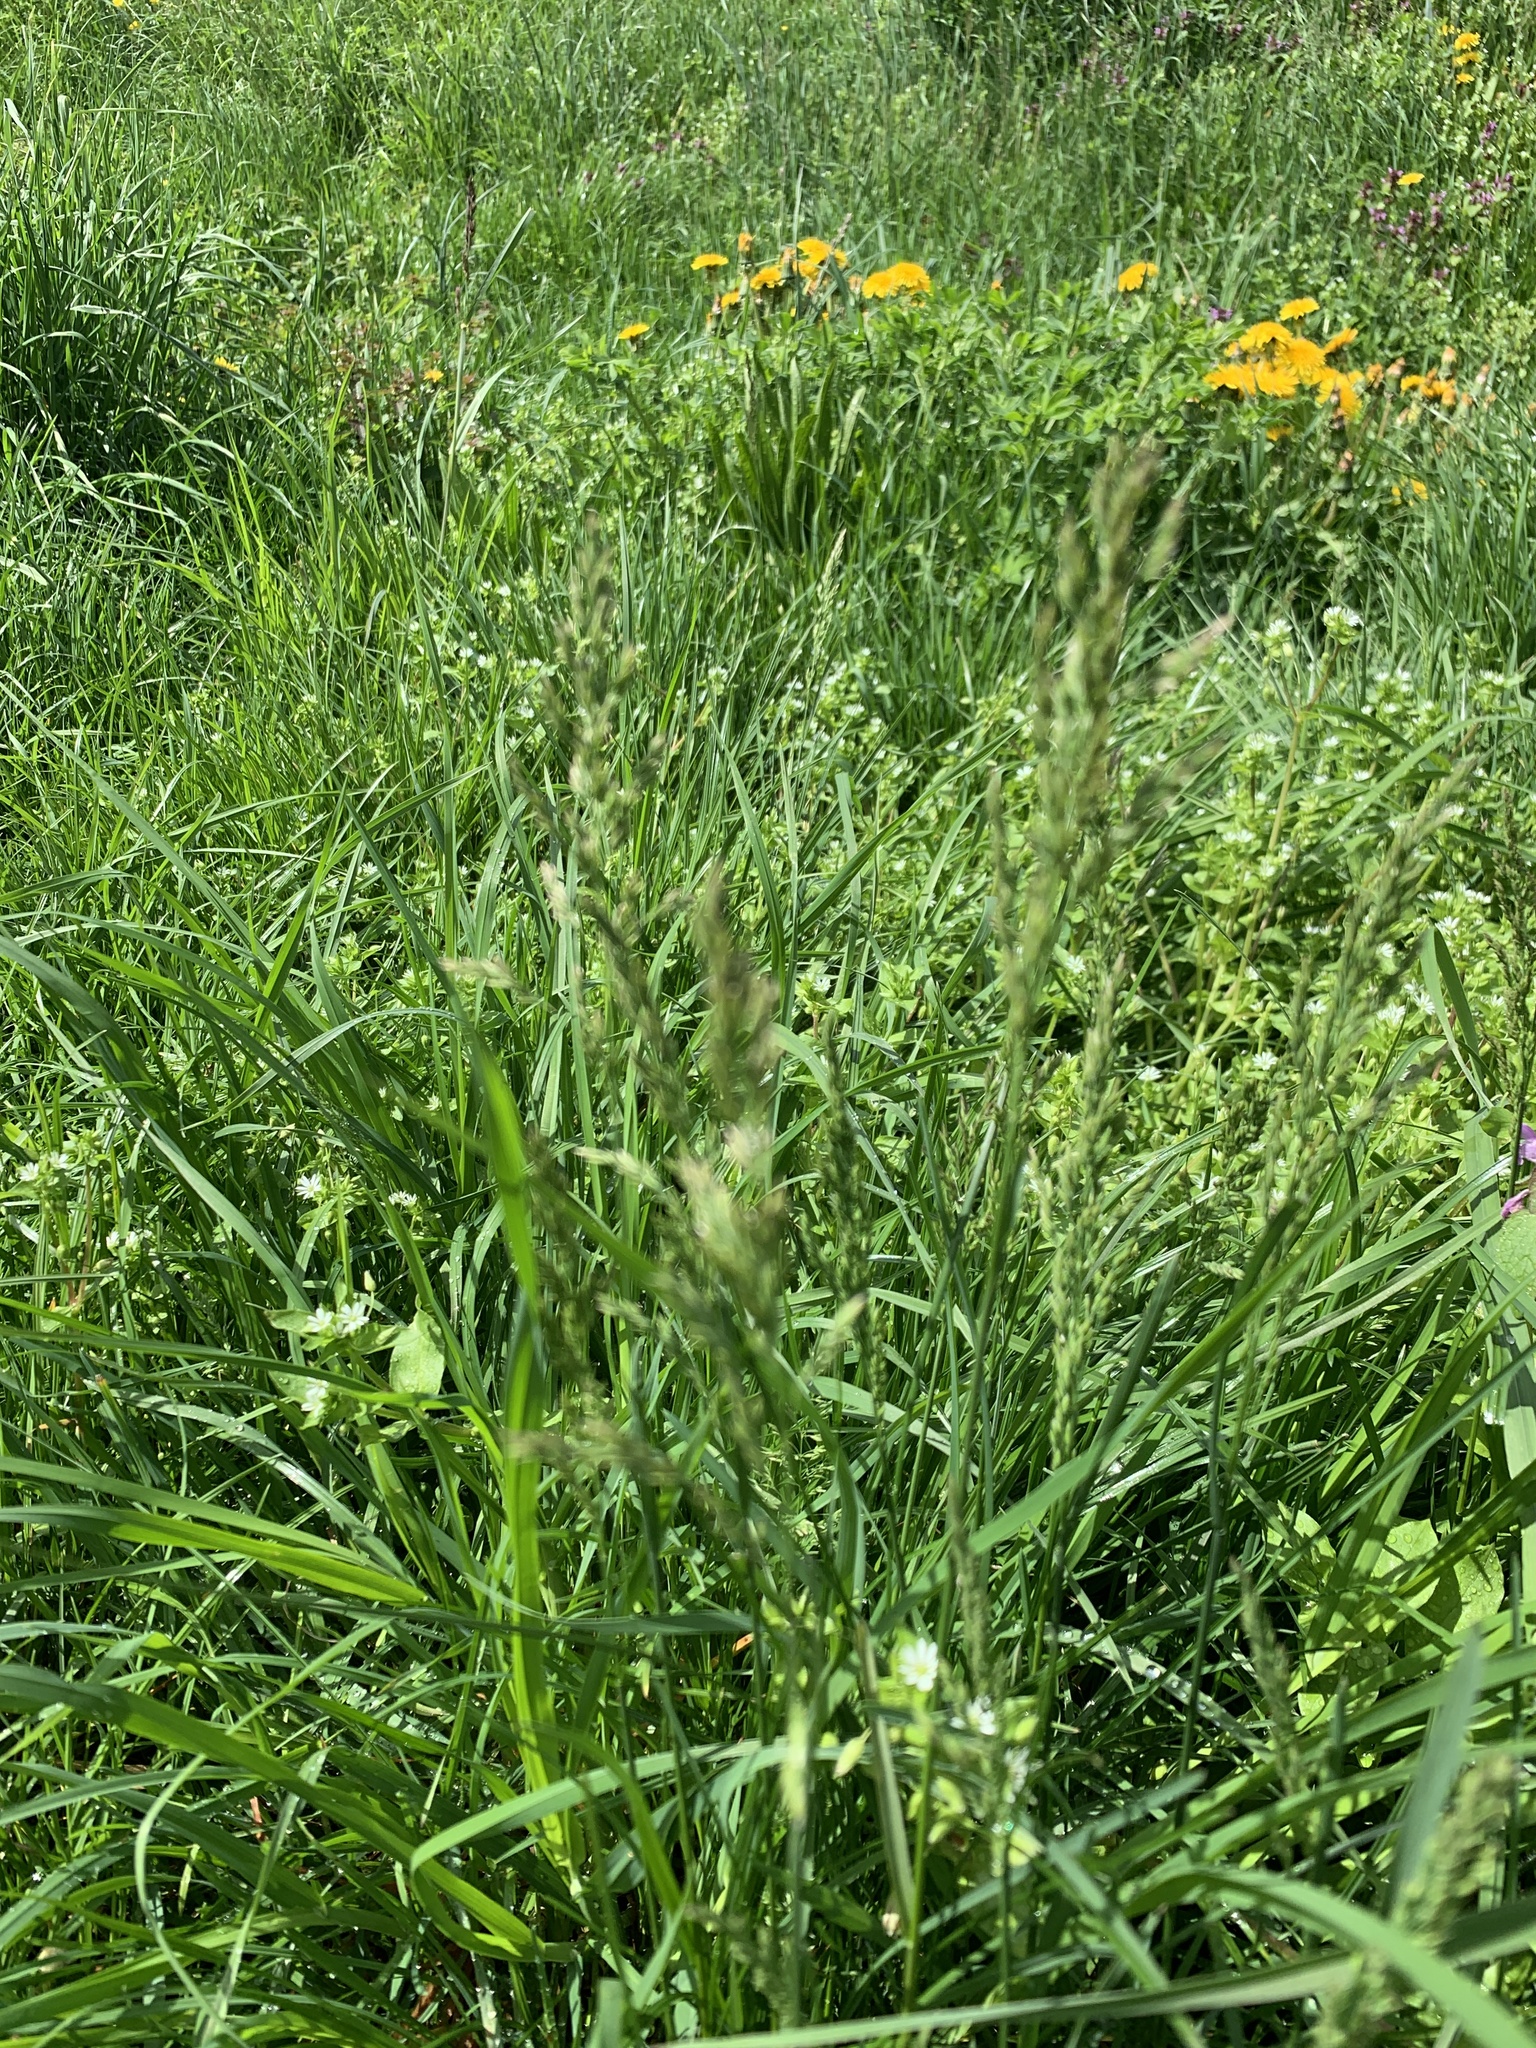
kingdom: Plantae
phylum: Tracheophyta
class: Liliopsida
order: Poales
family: Poaceae
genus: Poa
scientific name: Poa pratensis
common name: Kentucky bluegrass
